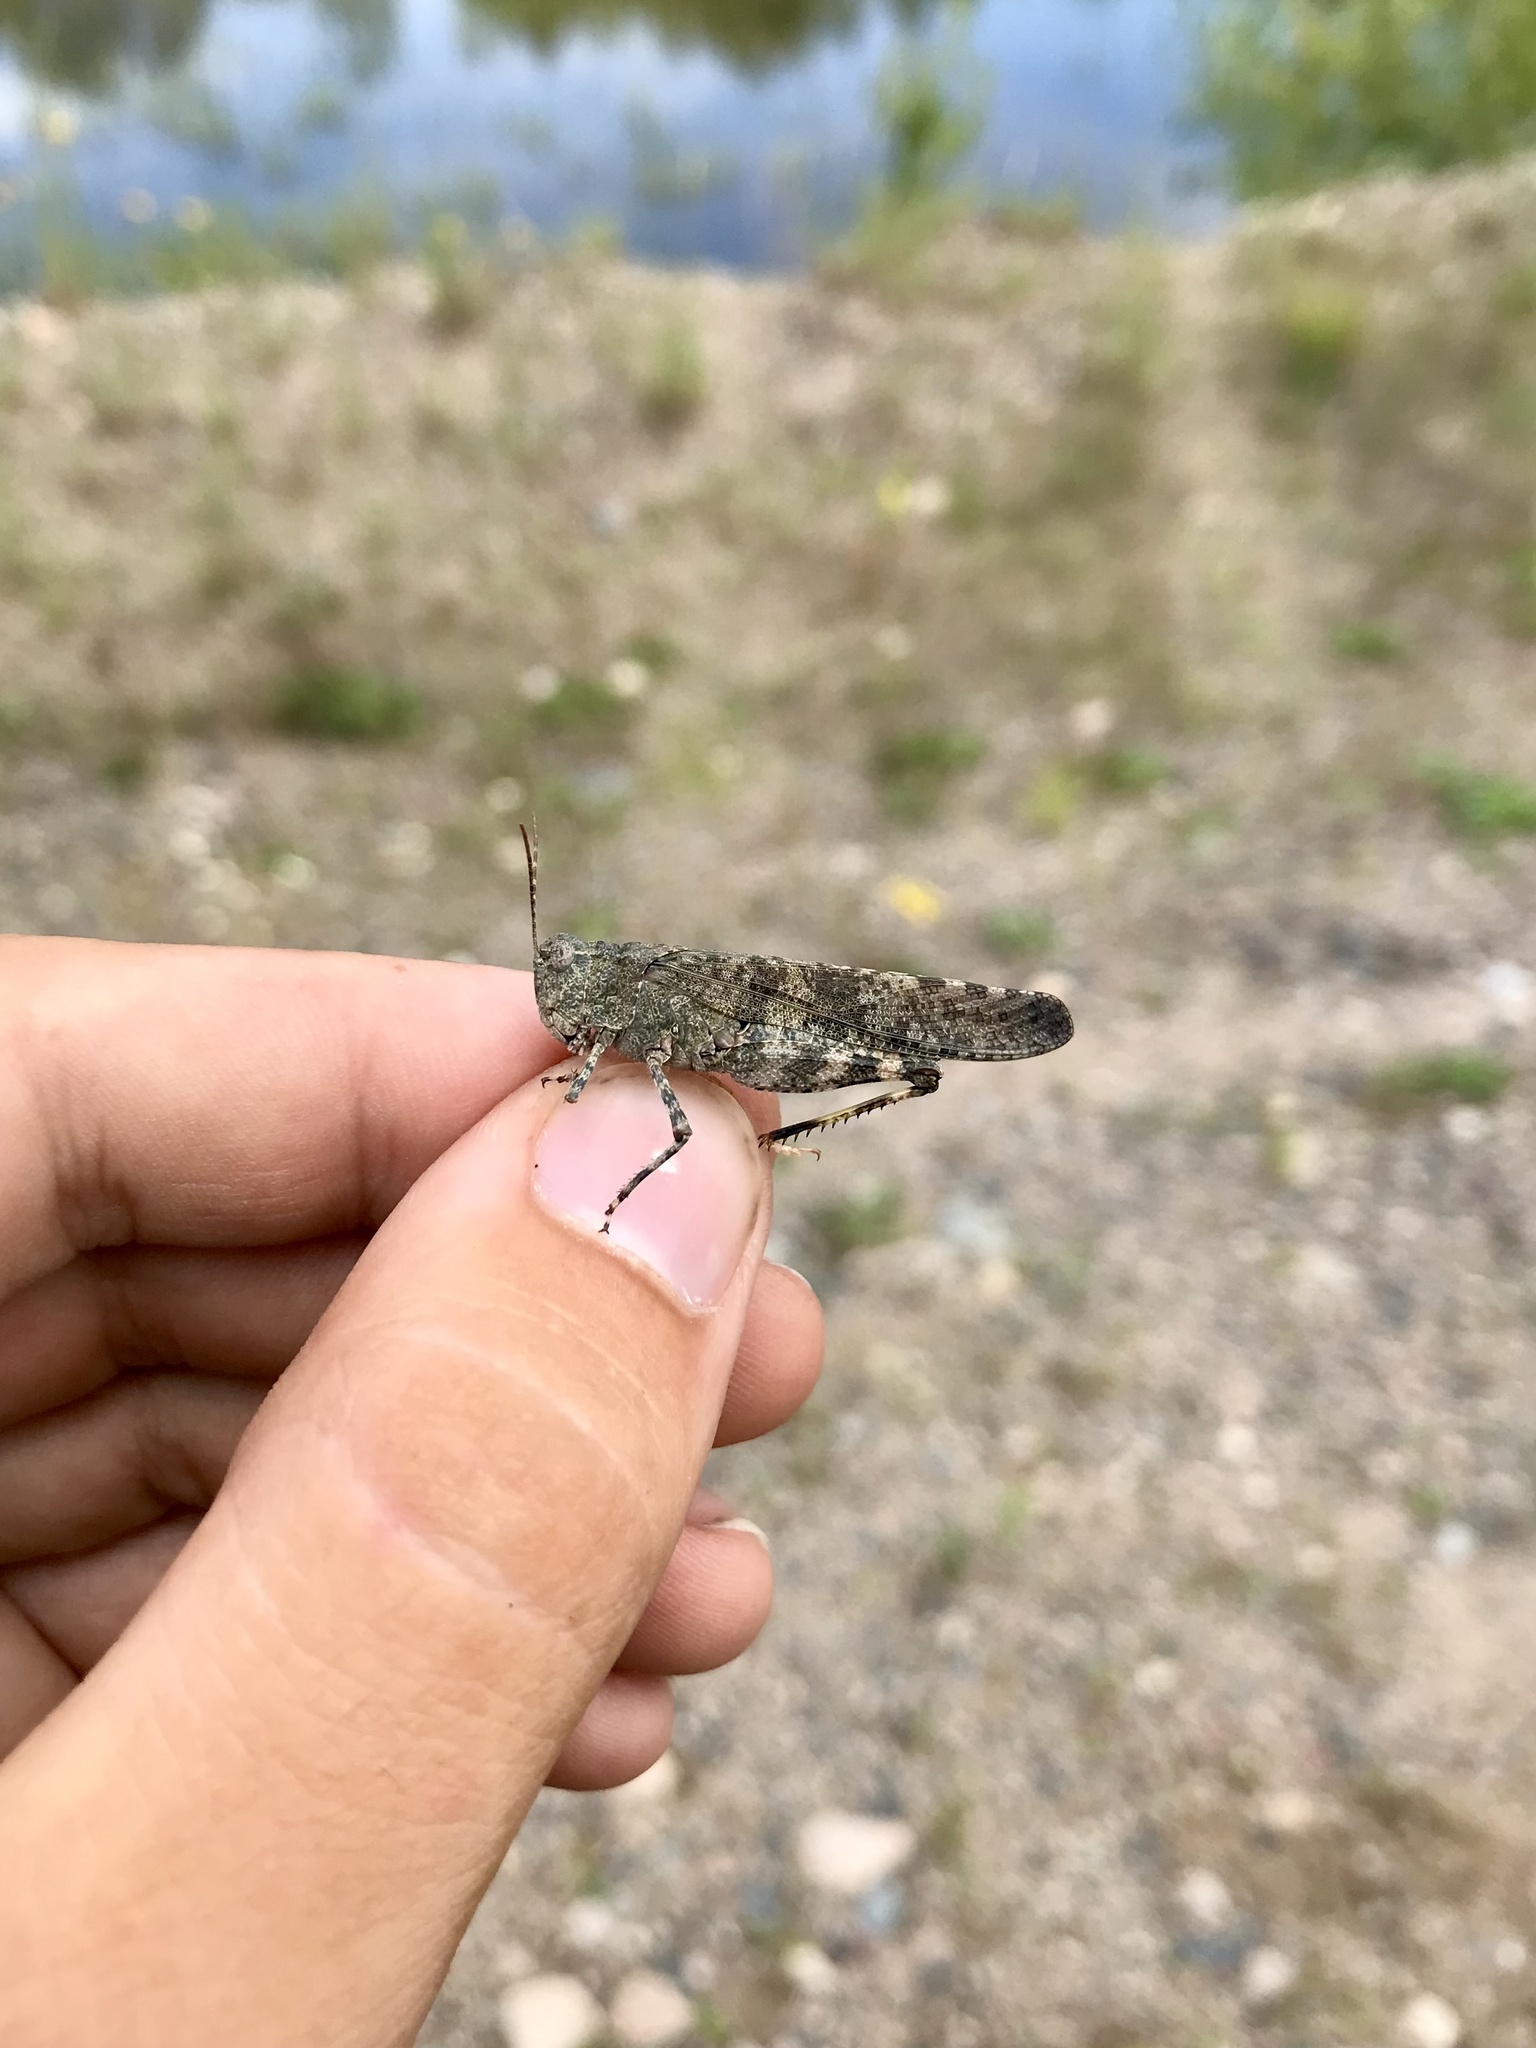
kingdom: Animalia
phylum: Arthropoda
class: Insecta
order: Orthoptera
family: Acrididae
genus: Trimerotropis
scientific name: Trimerotropis verruculata
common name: Crackling forest grasshopper
